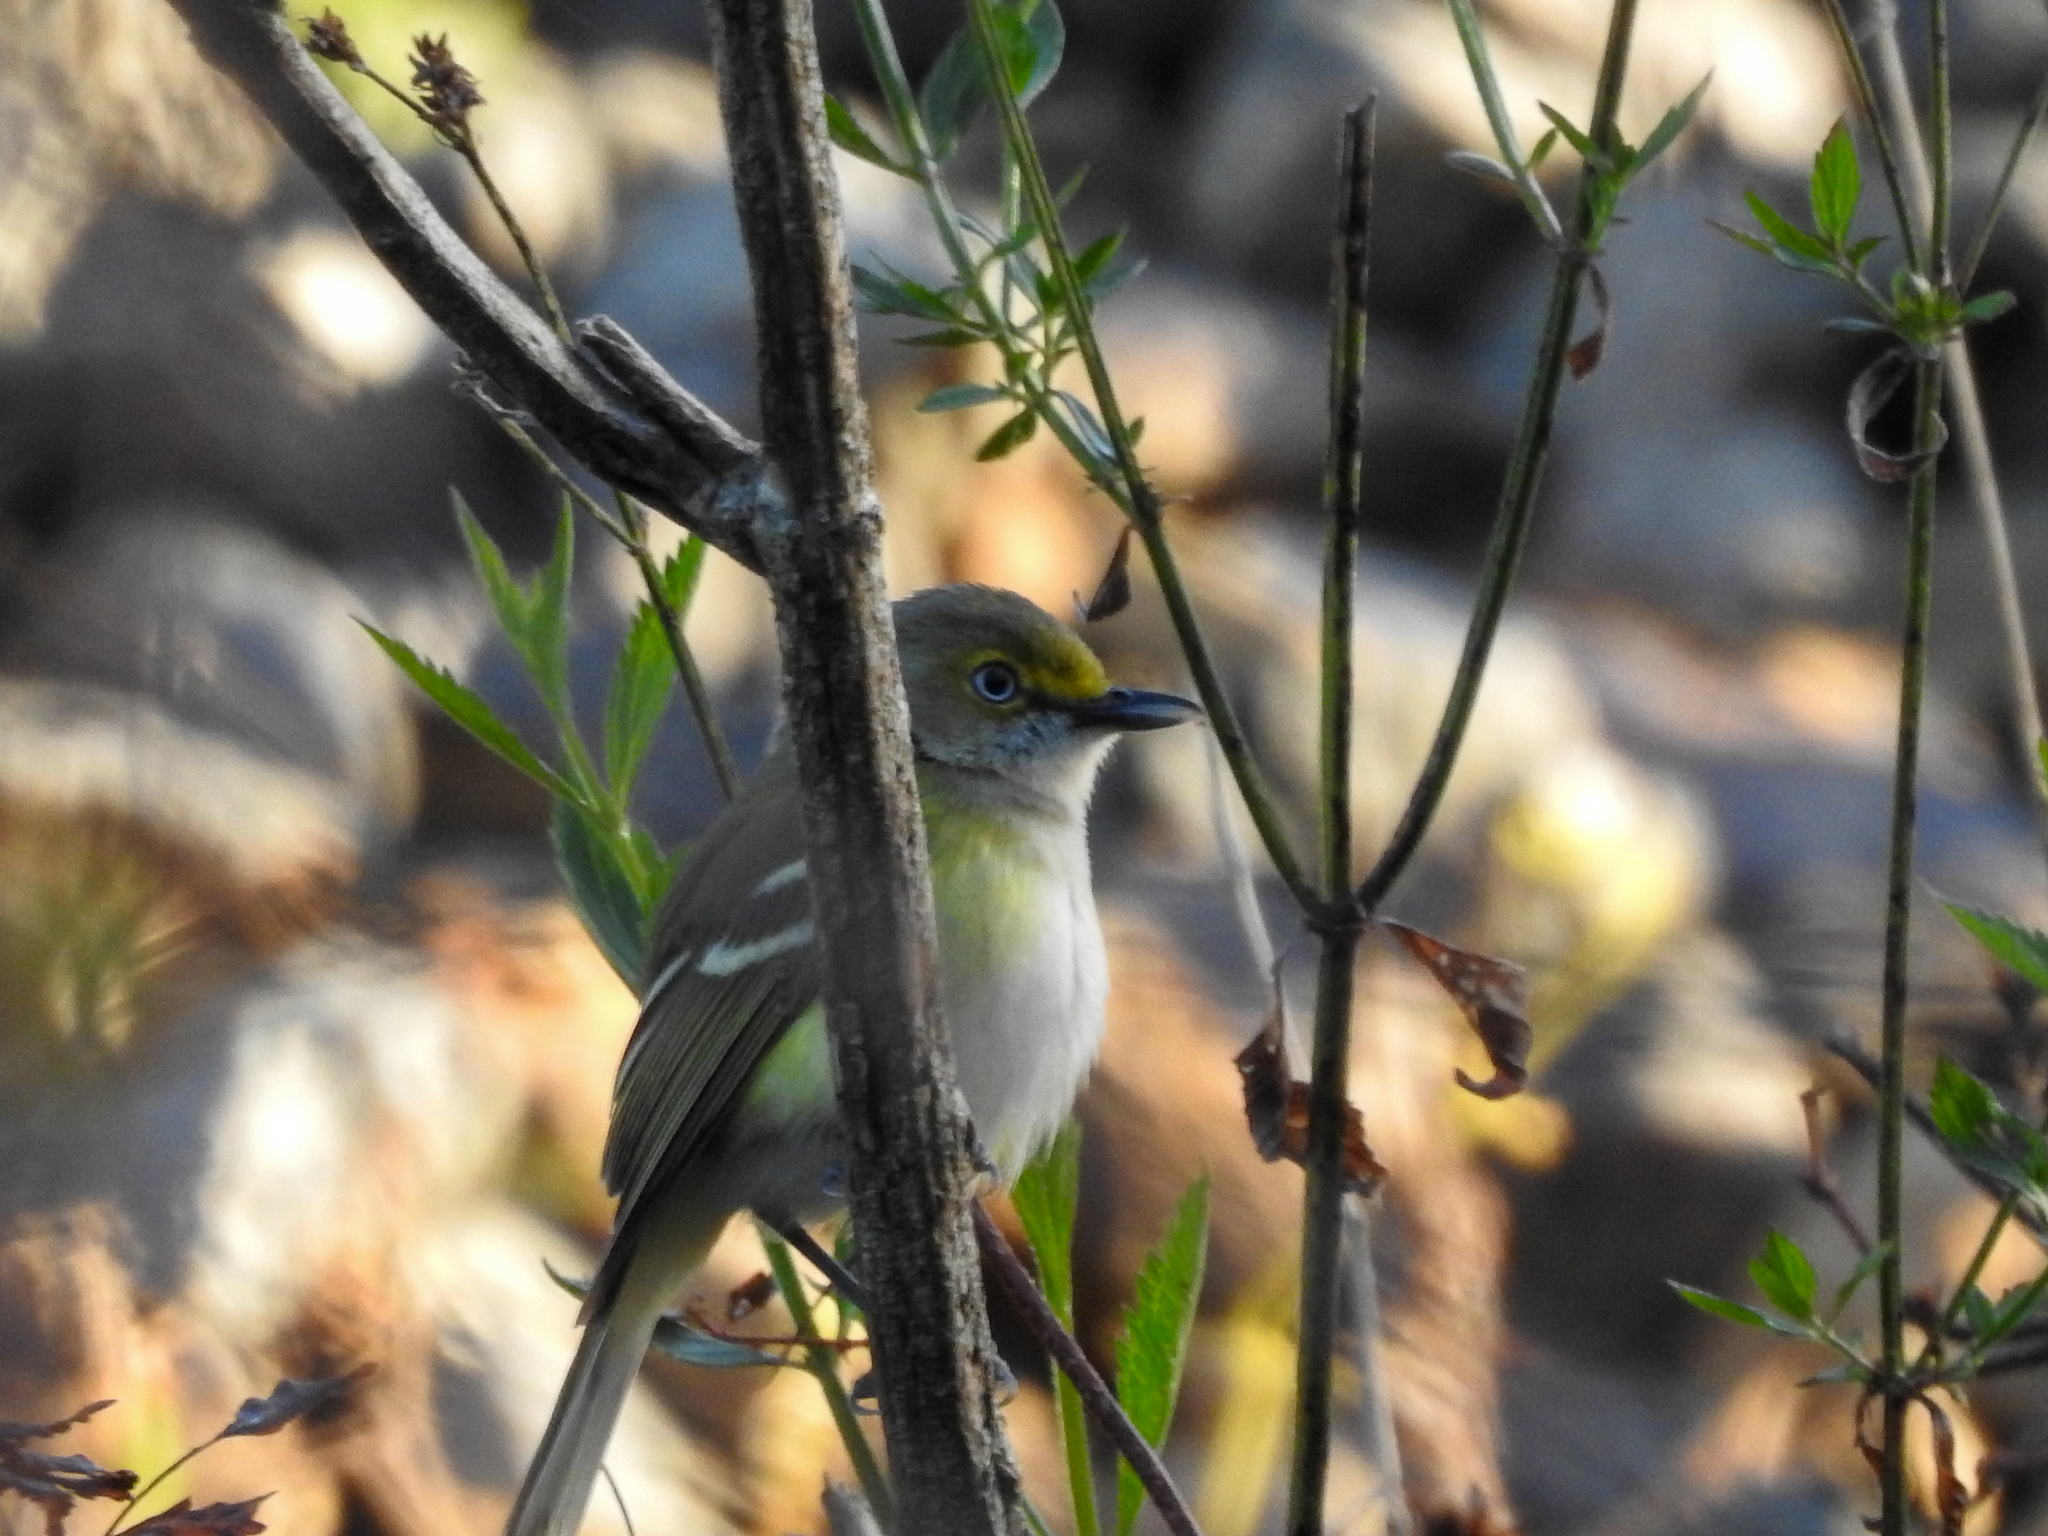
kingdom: Animalia
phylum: Chordata
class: Aves
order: Passeriformes
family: Vireonidae
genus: Vireo
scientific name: Vireo griseus
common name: White-eyed vireo
